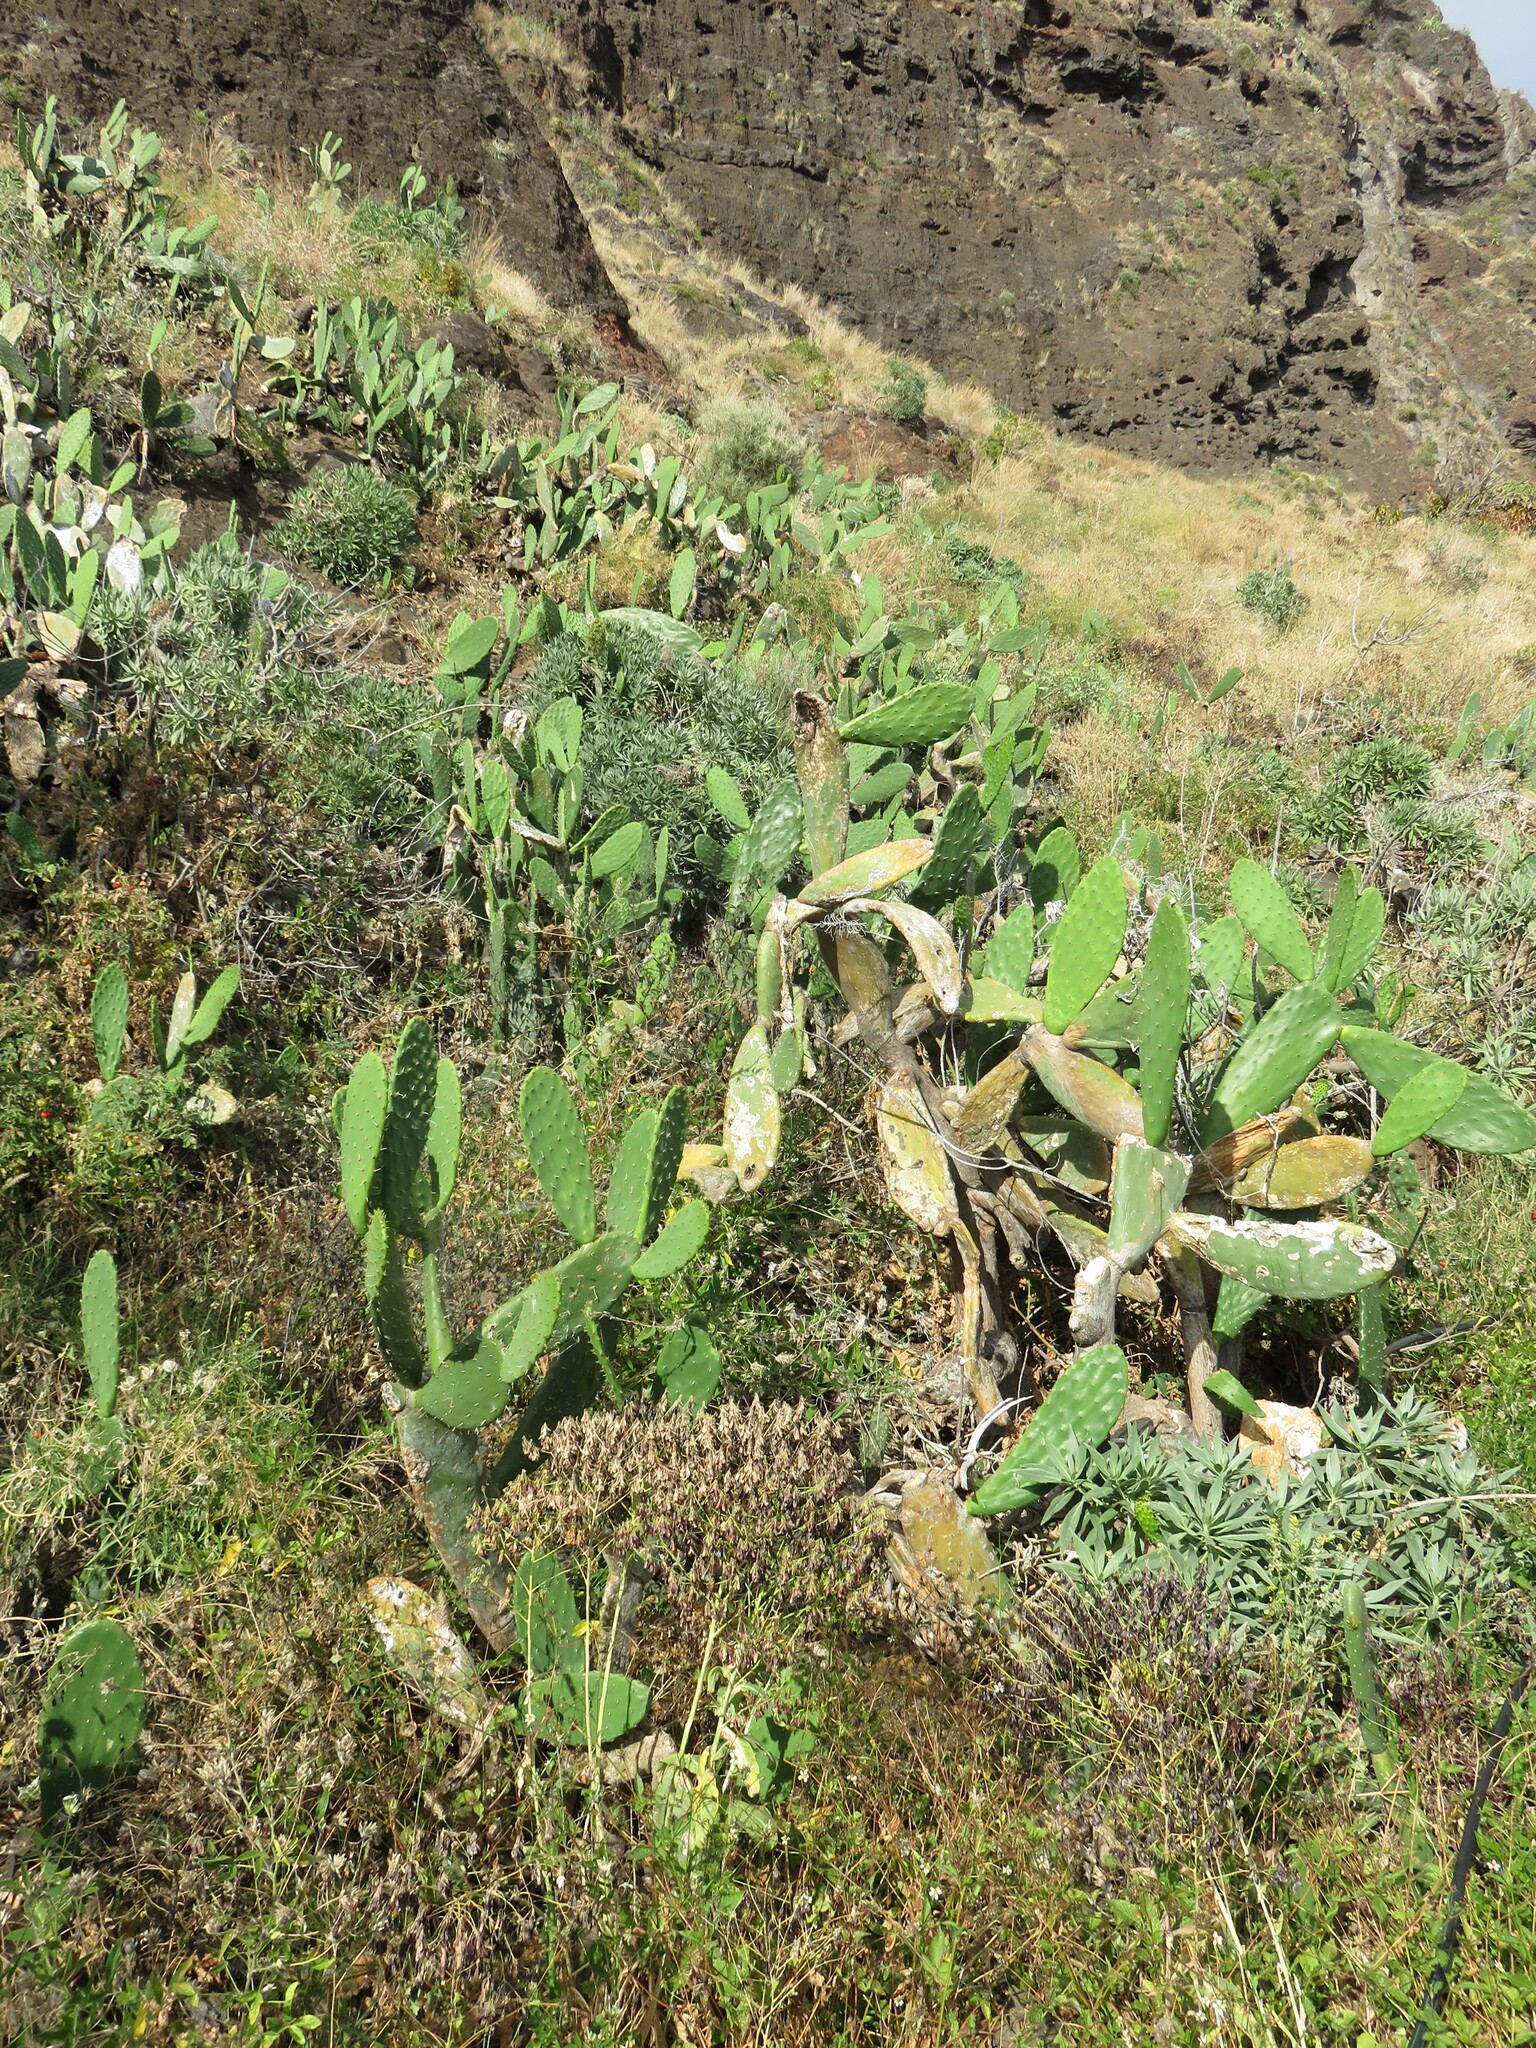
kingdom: Plantae
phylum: Tracheophyta
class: Magnoliopsida
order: Caryophyllales
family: Cactaceae
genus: Opuntia
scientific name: Opuntia ficus-indica
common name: Barbary fig
